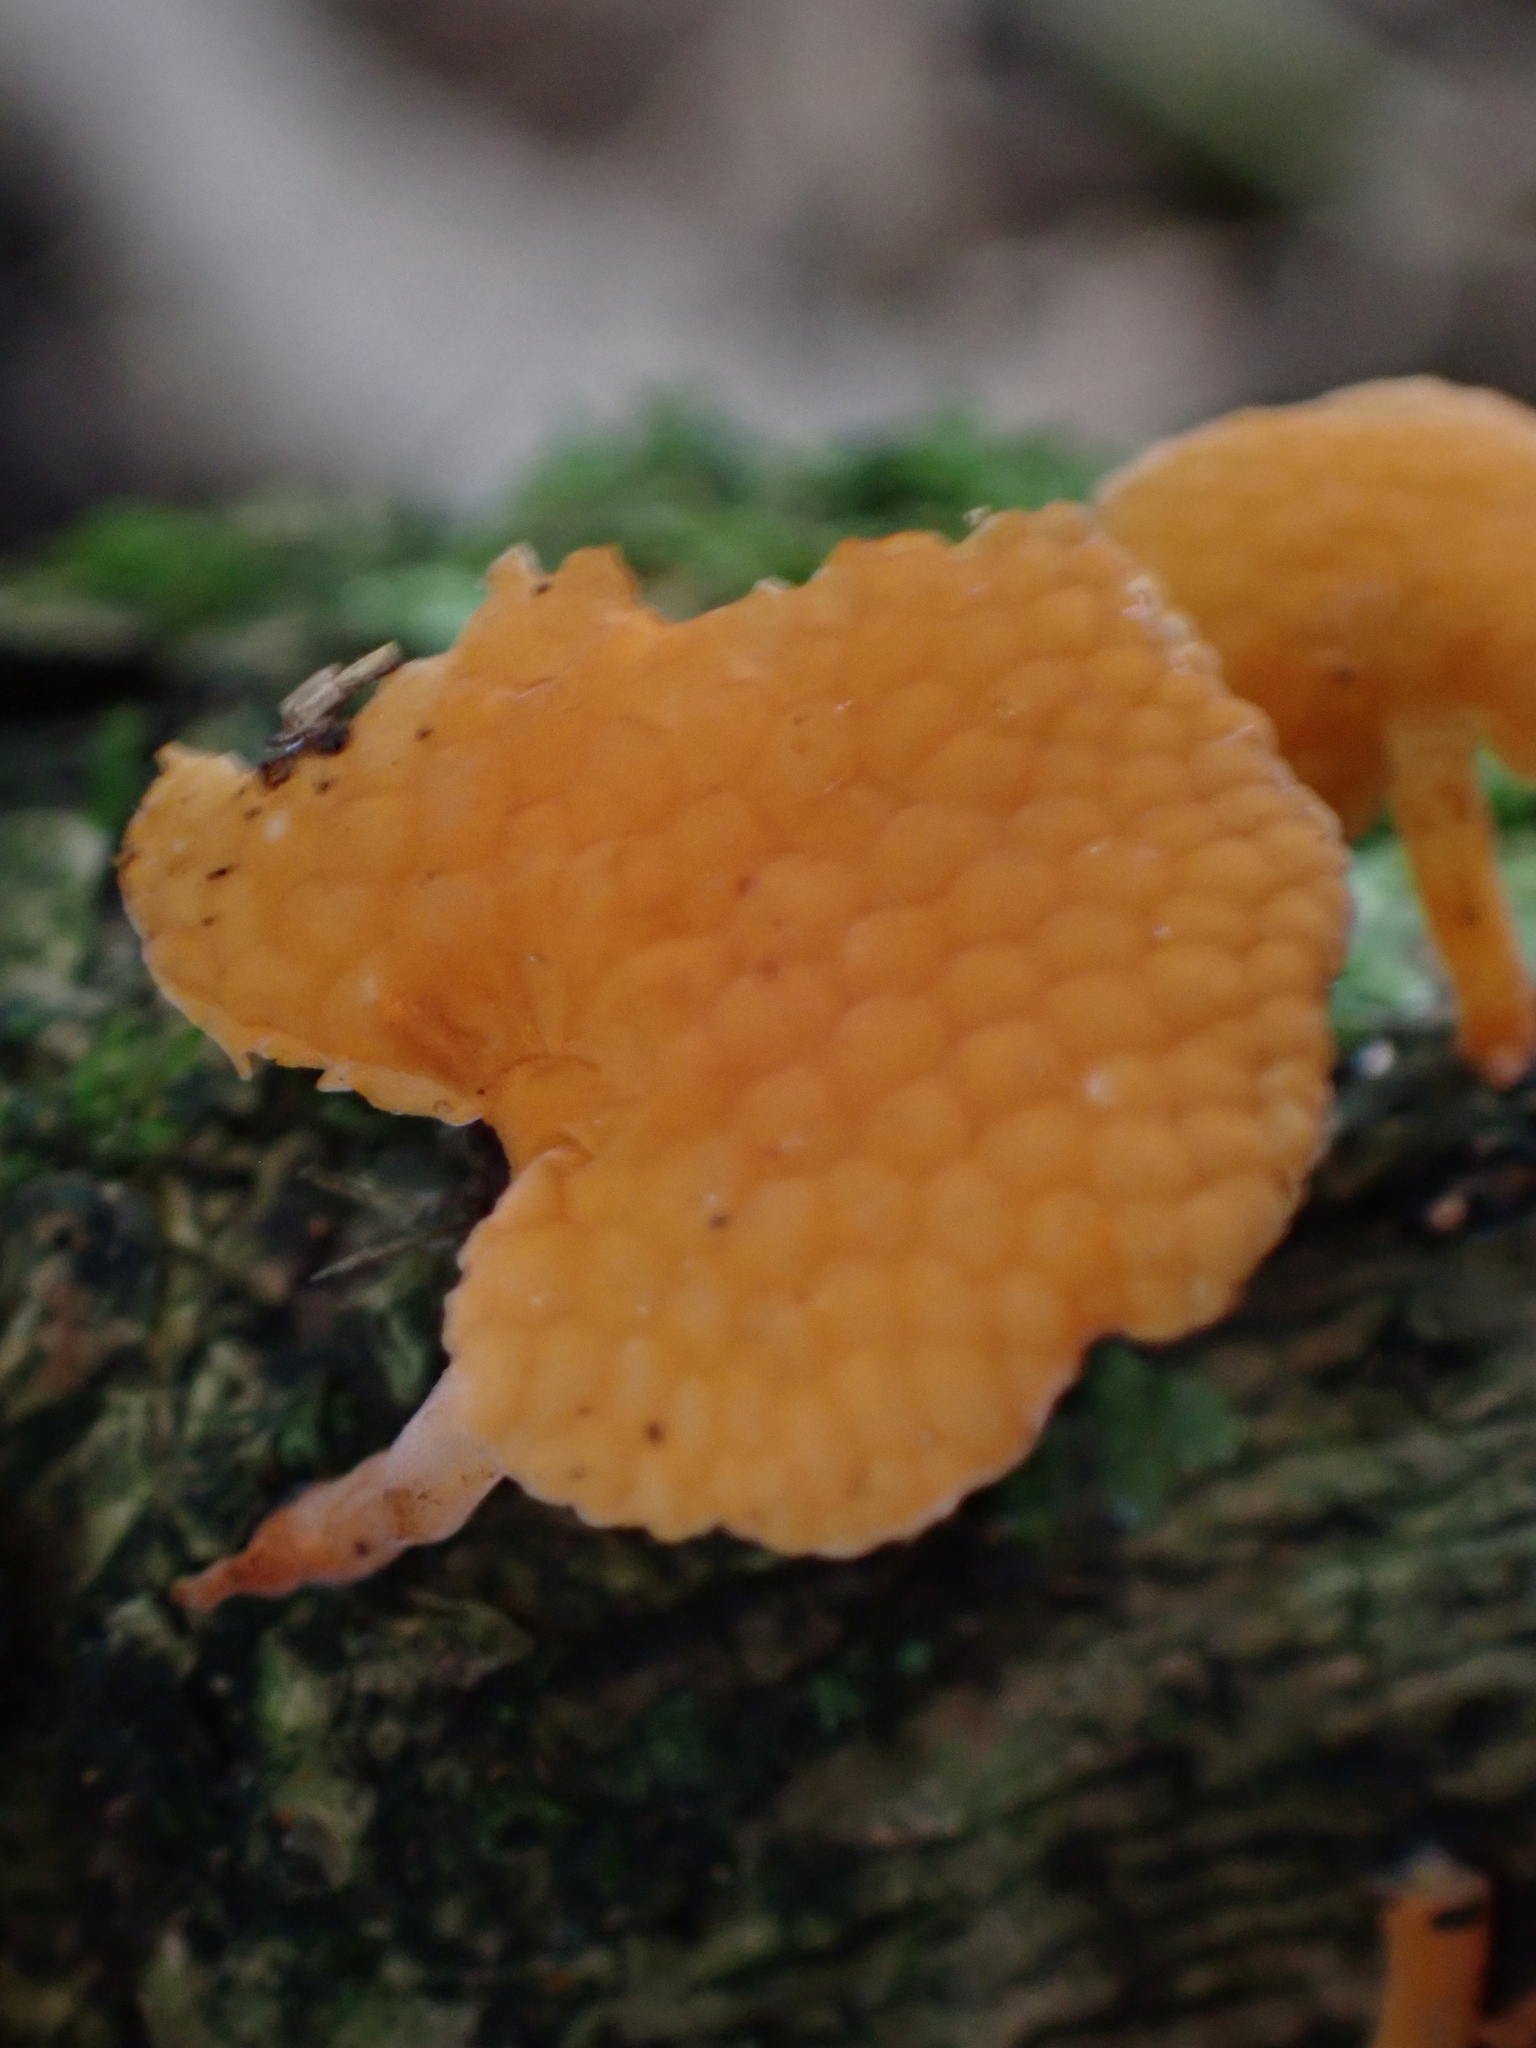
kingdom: Fungi
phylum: Basidiomycota
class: Agaricomycetes
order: Agaricales
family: Mycenaceae
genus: Favolaschia
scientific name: Favolaschia claudopus
